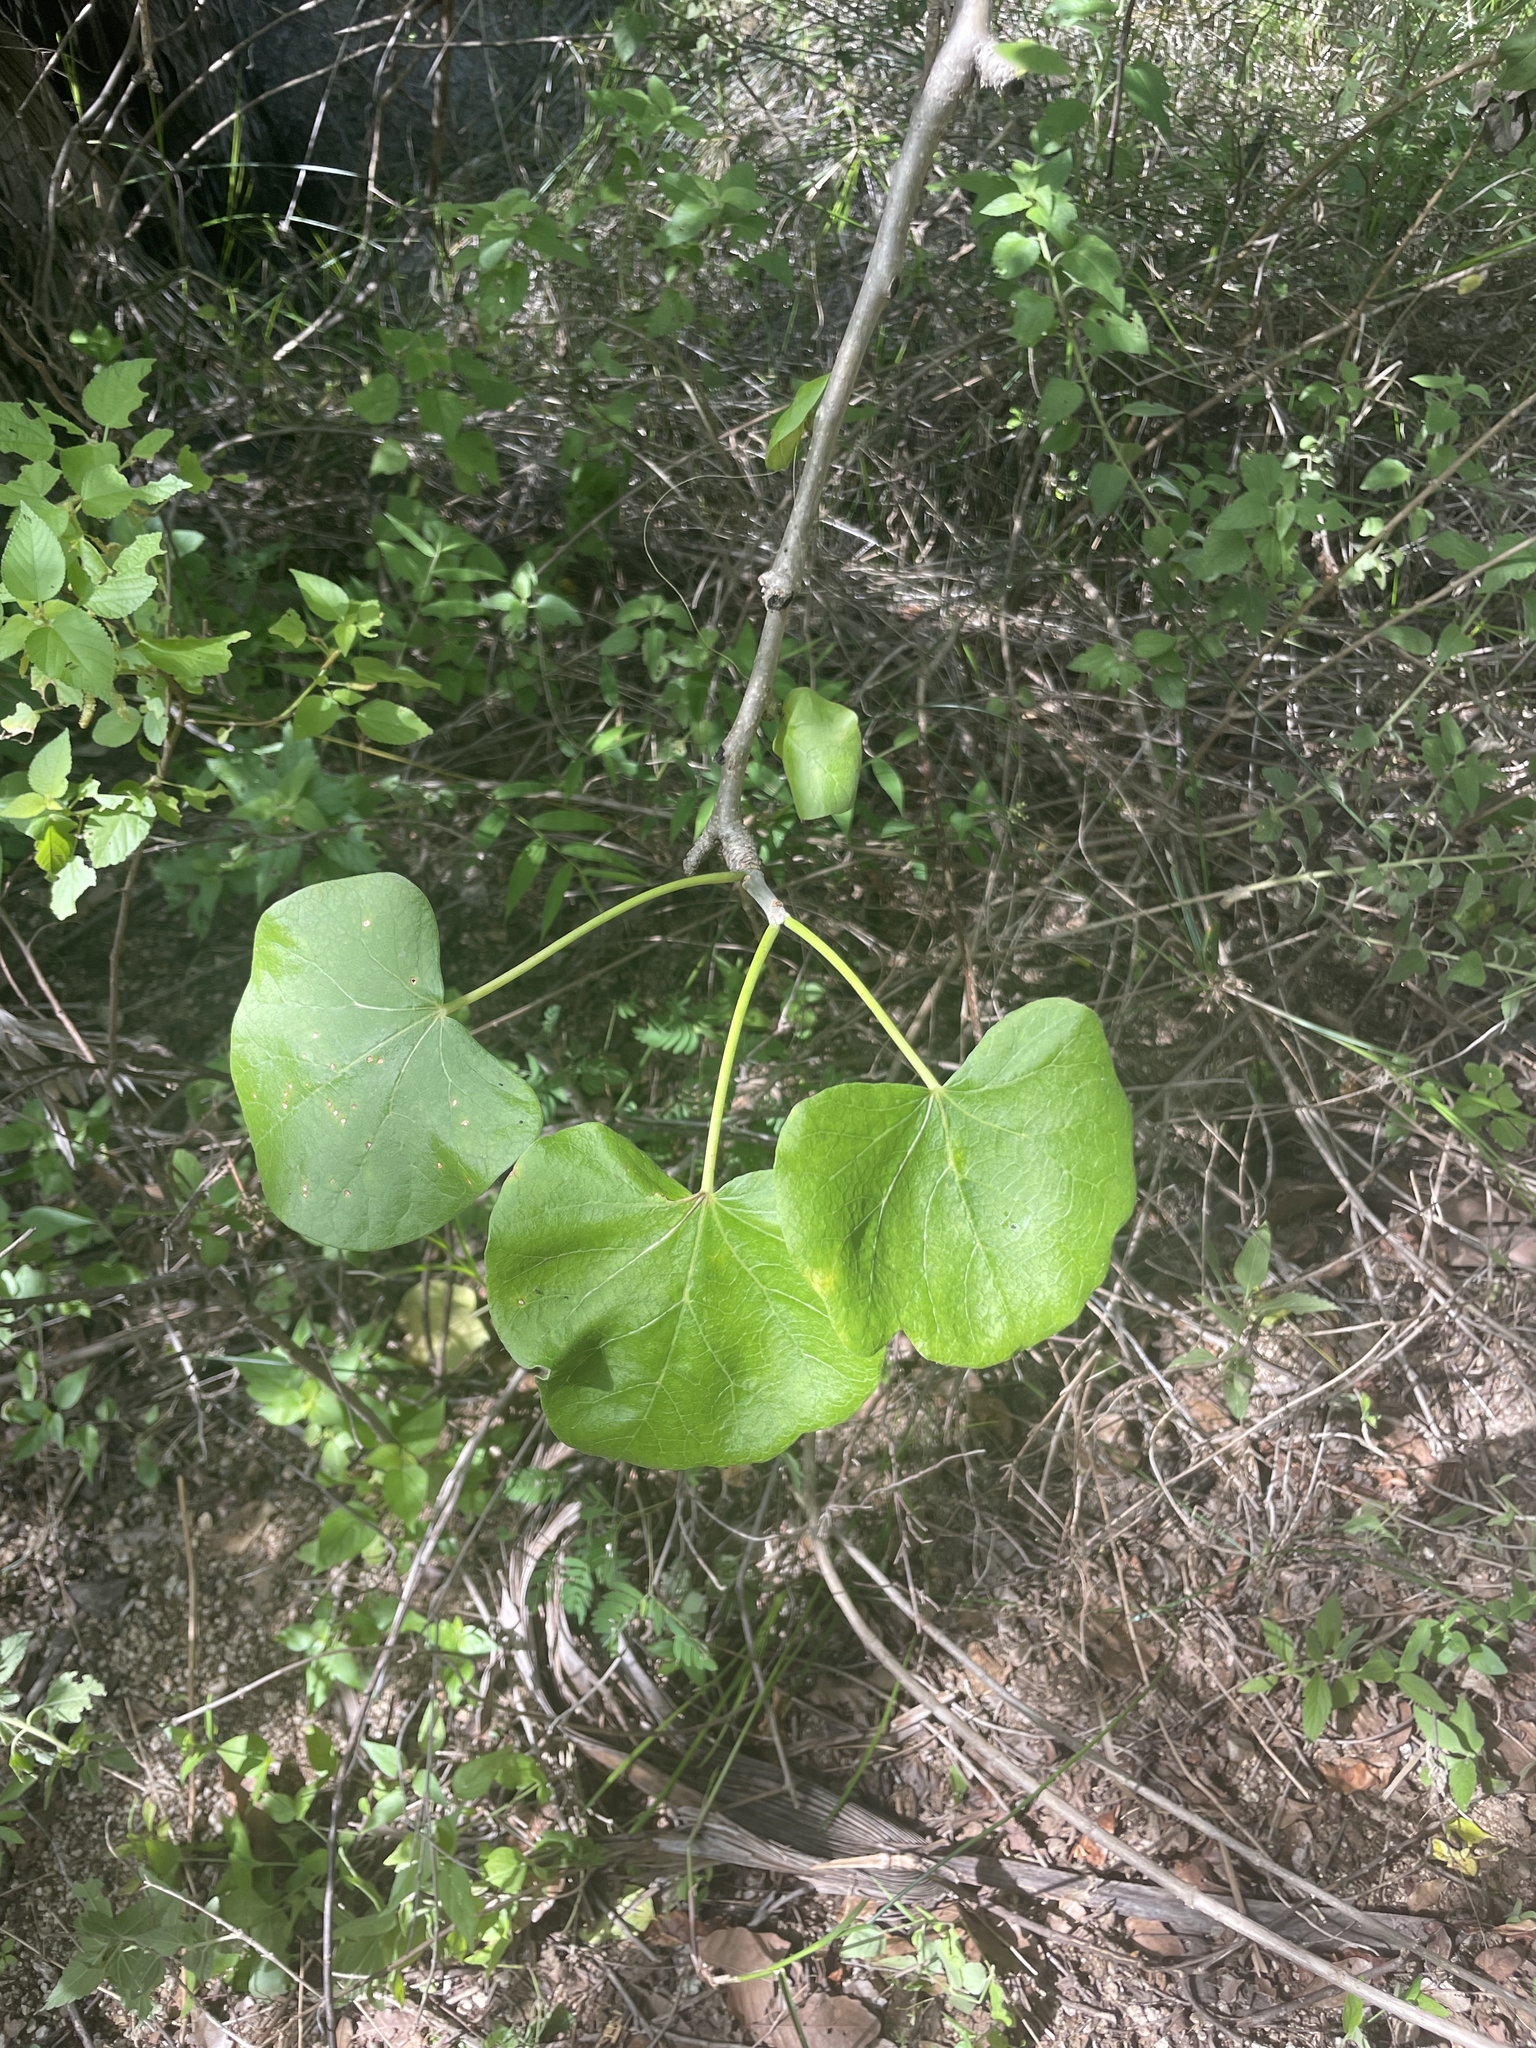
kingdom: Plantae
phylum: Tracheophyta
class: Magnoliopsida
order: Malpighiales
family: Euphorbiaceae
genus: Jatropha
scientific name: Jatropha cinerea
